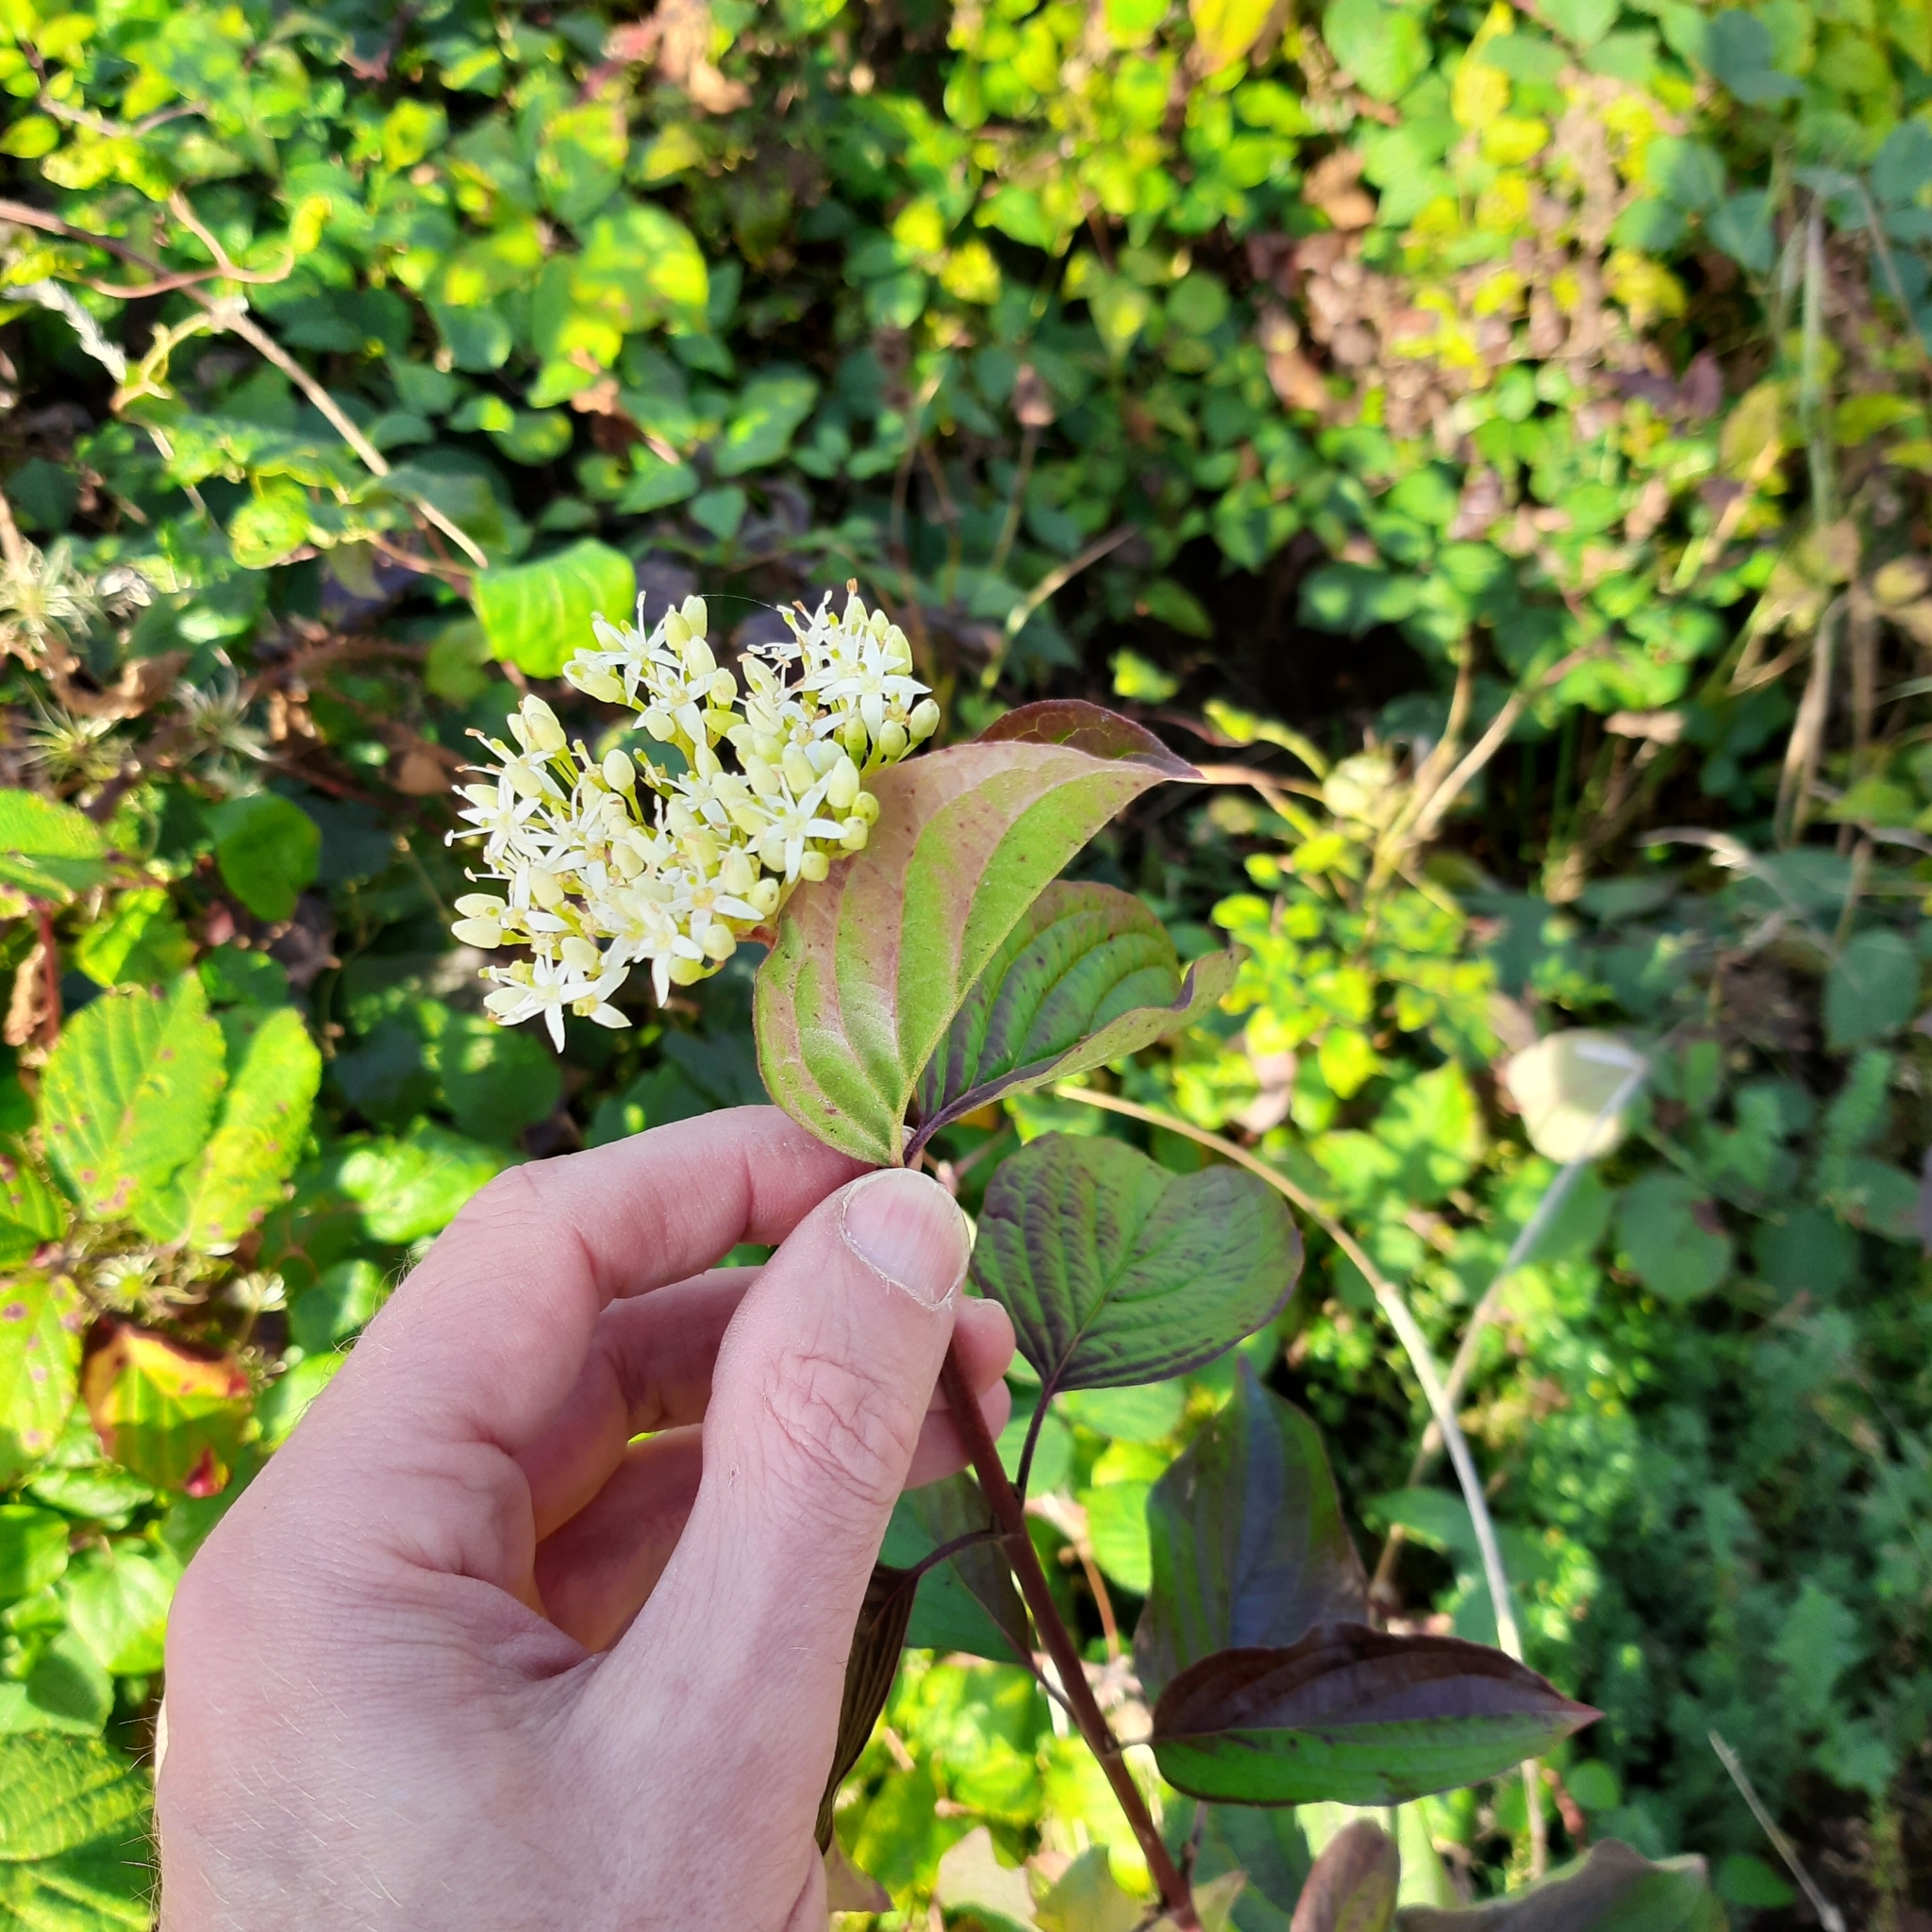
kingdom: Plantae
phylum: Tracheophyta
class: Magnoliopsida
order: Cornales
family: Cornaceae
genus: Cornus
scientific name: Cornus sanguinea
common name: Dogwood
